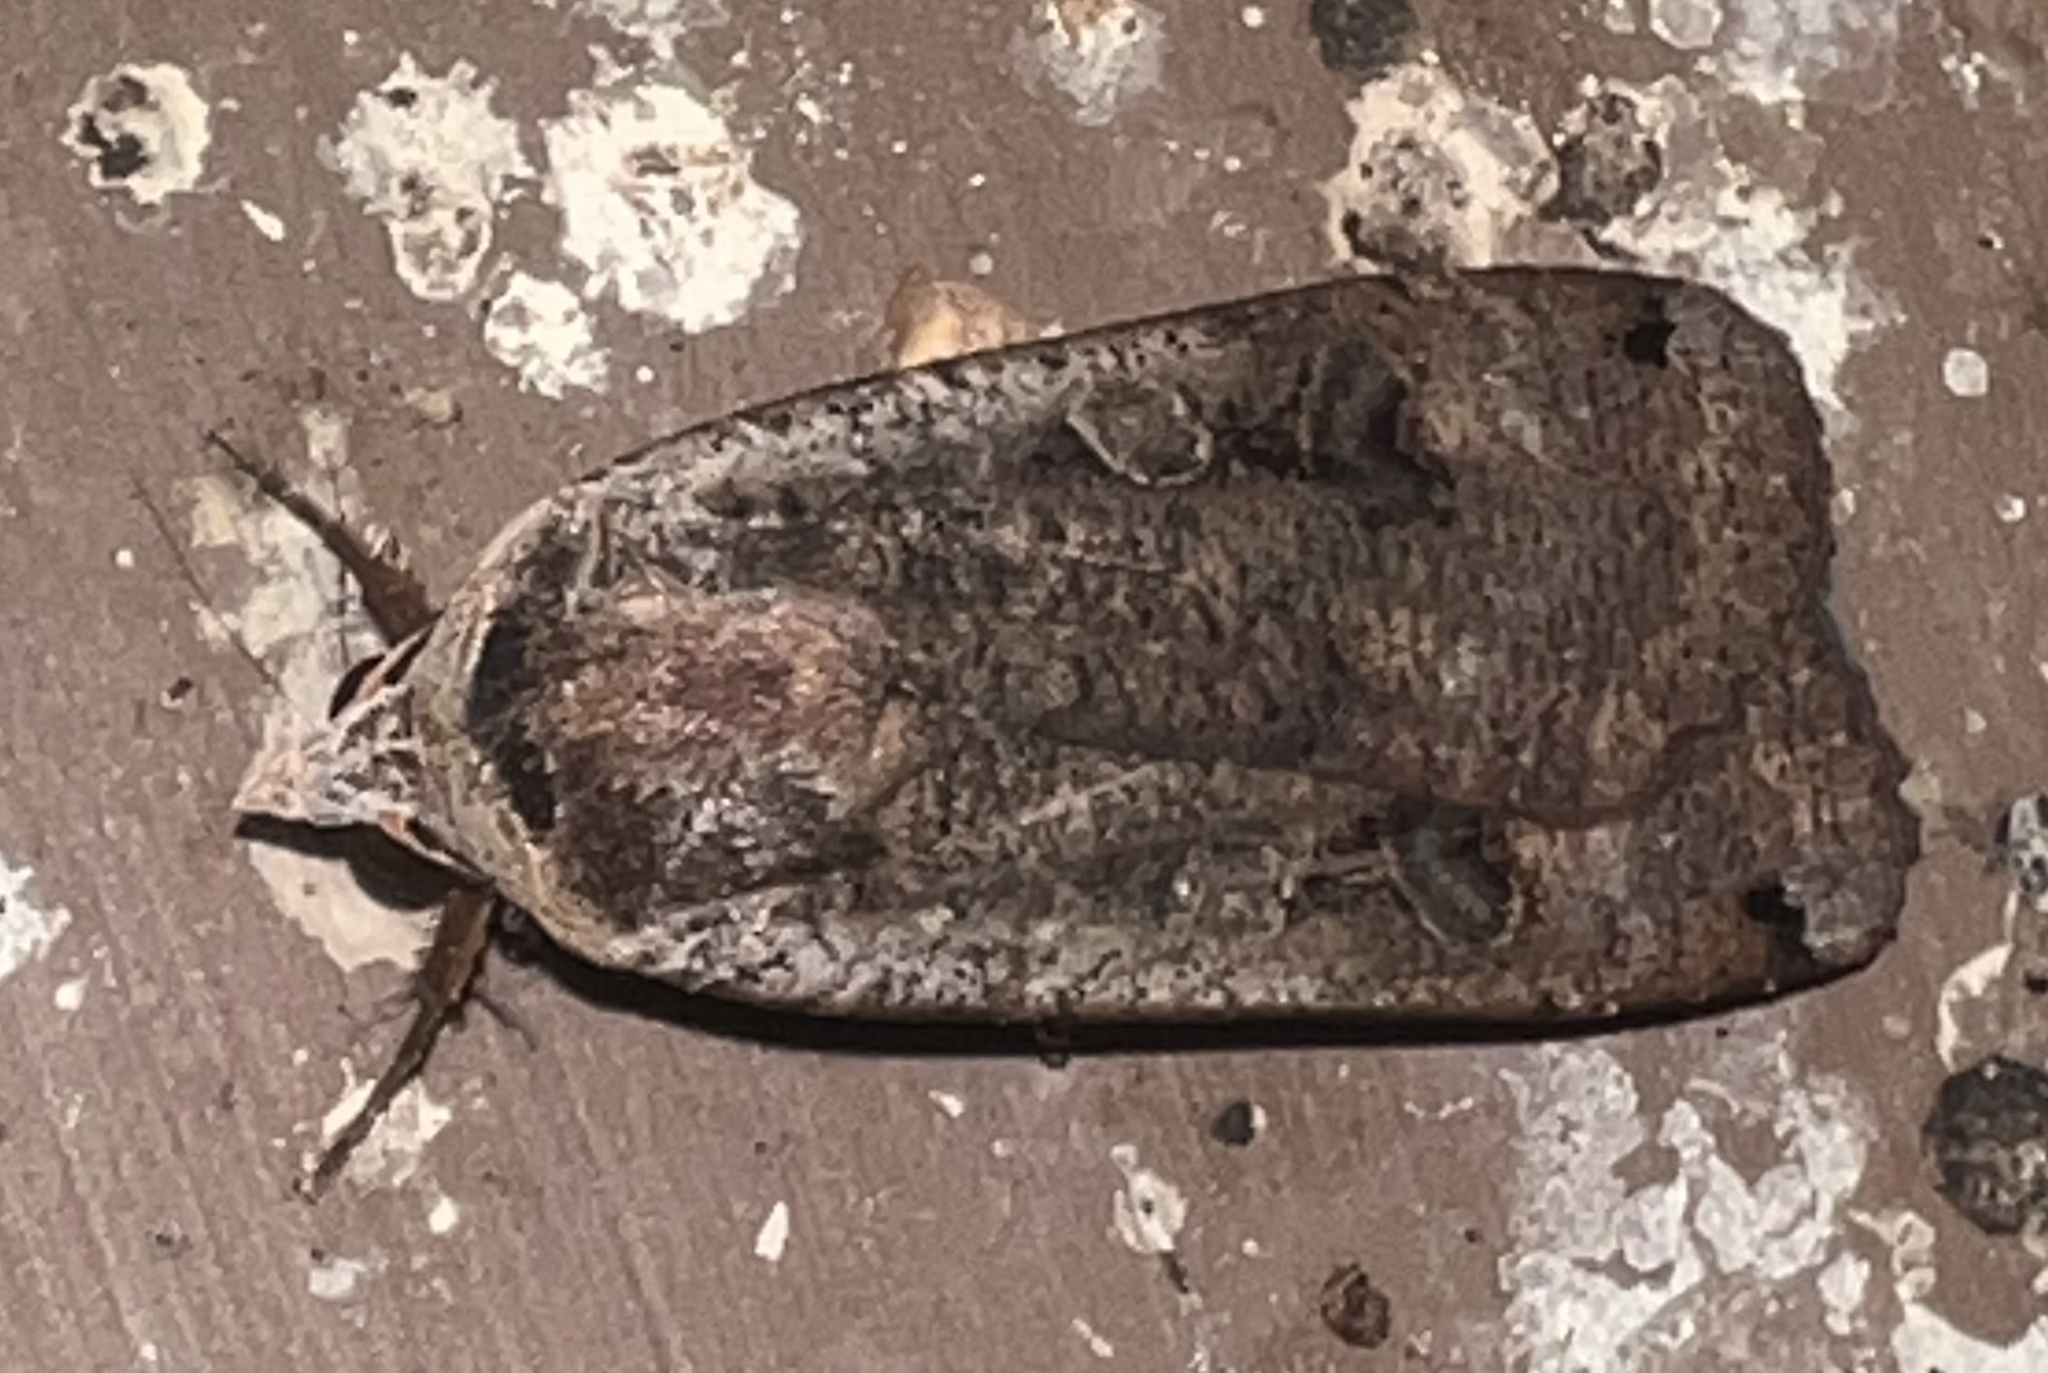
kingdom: Animalia
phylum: Arthropoda
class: Insecta
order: Lepidoptera
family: Noctuidae
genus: Noctua
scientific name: Noctua pronuba
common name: Large yellow underwing
